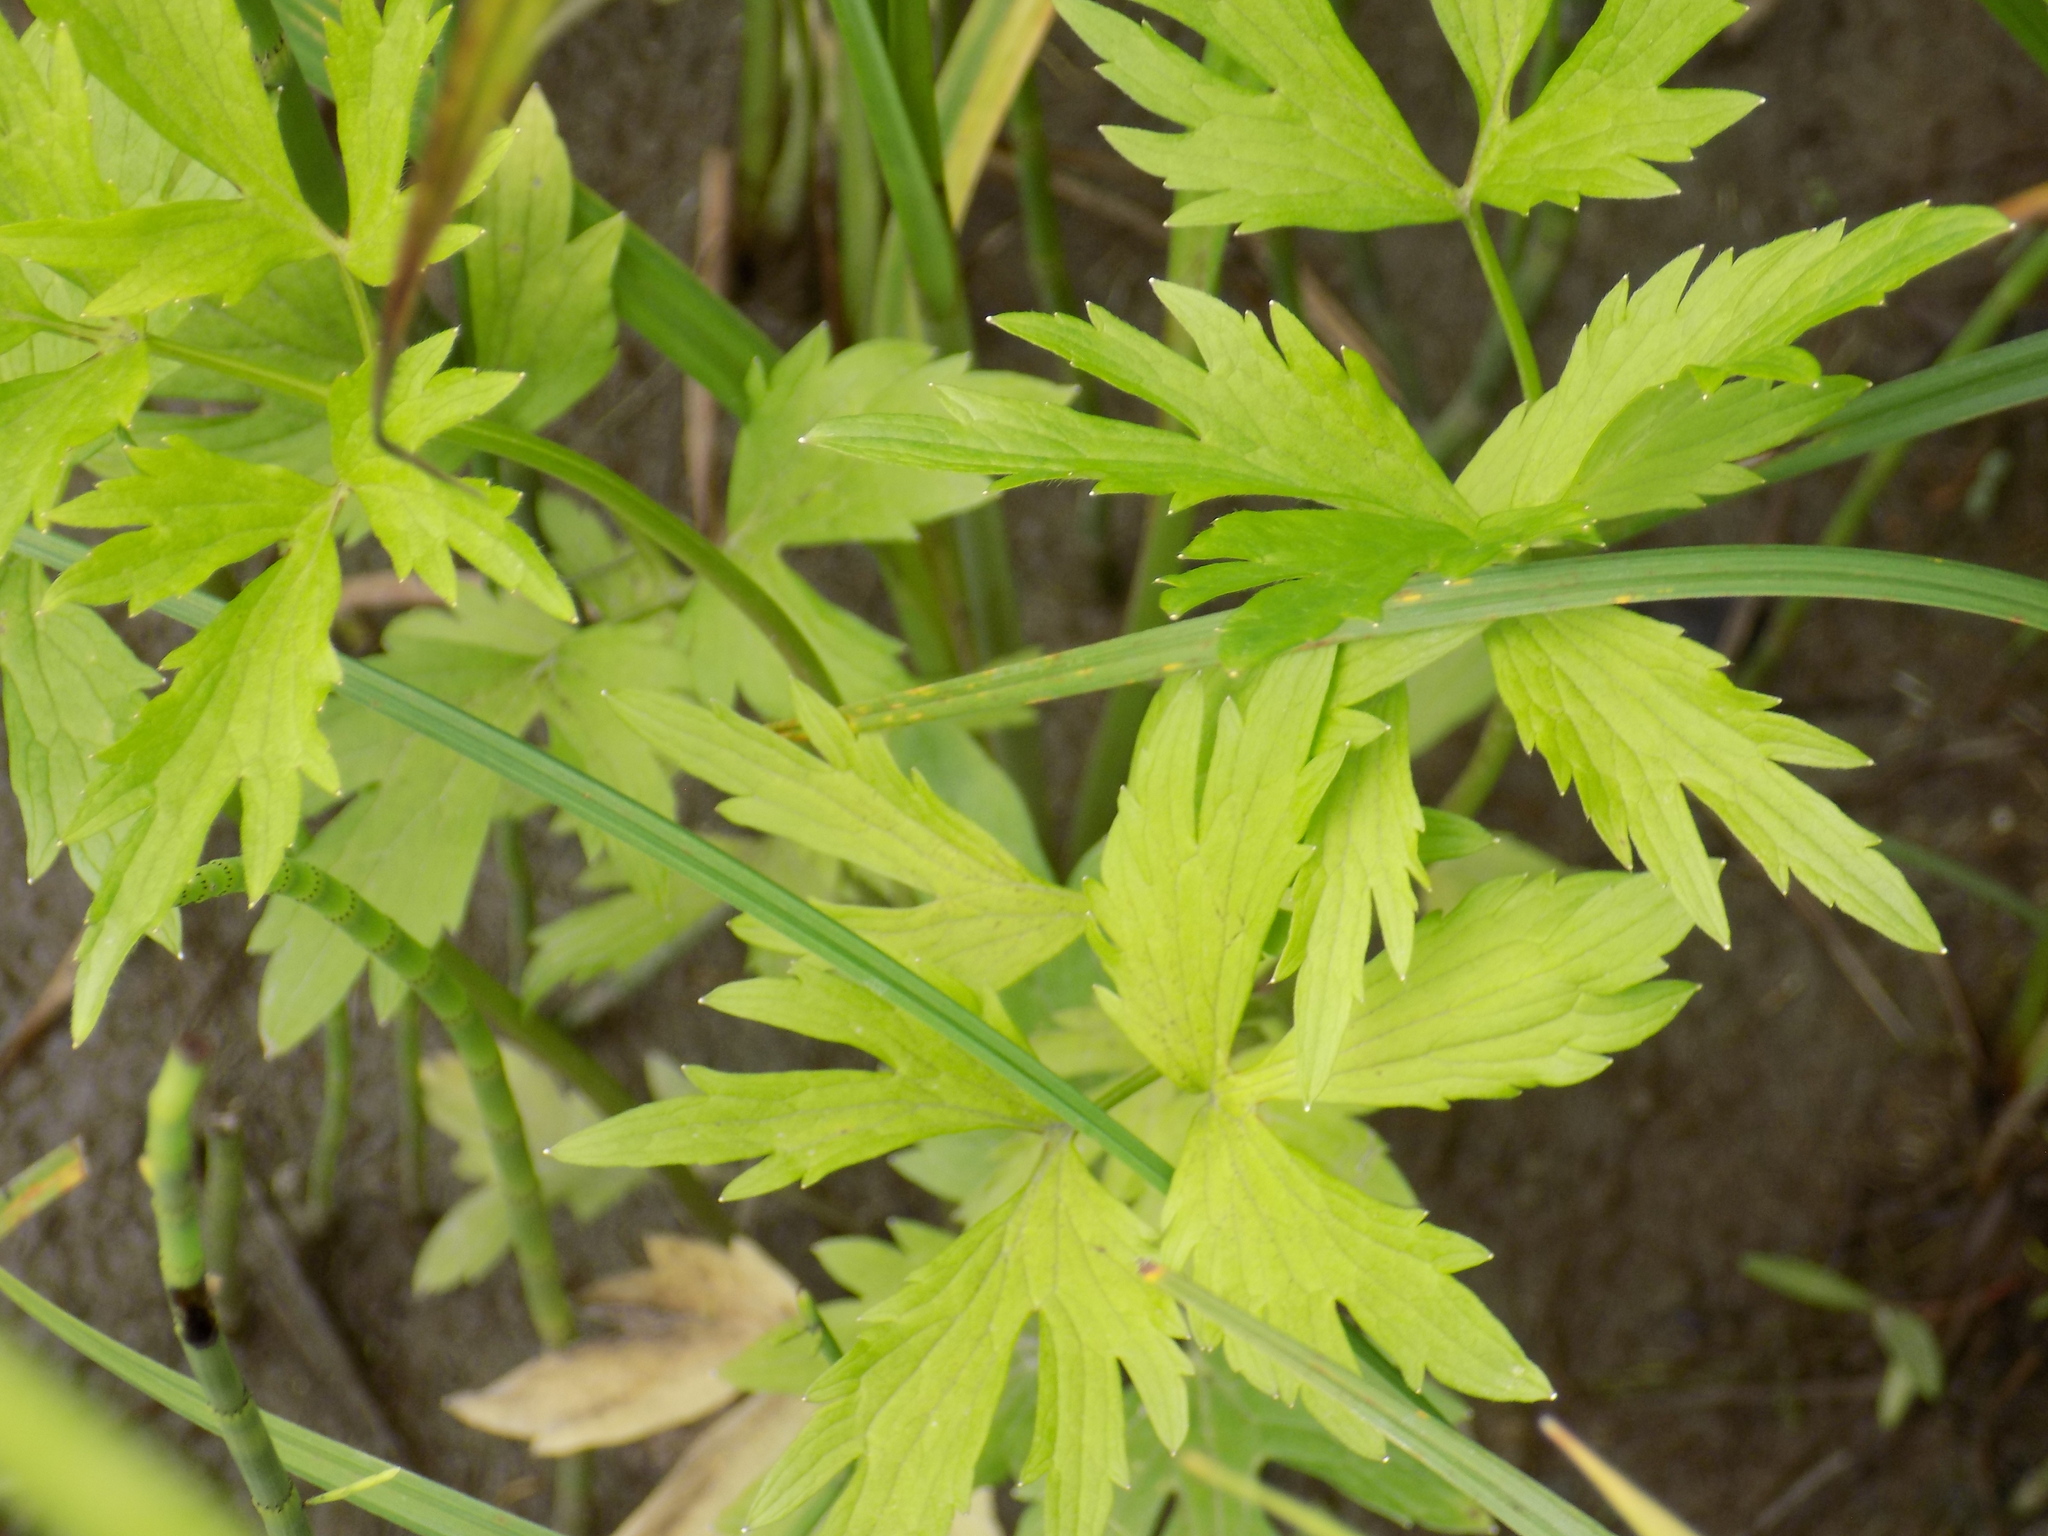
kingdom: Plantae
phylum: Tracheophyta
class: Magnoliopsida
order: Ranunculales
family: Ranunculaceae
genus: Ranunculus
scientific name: Ranunculus repens
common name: Creeping buttercup
